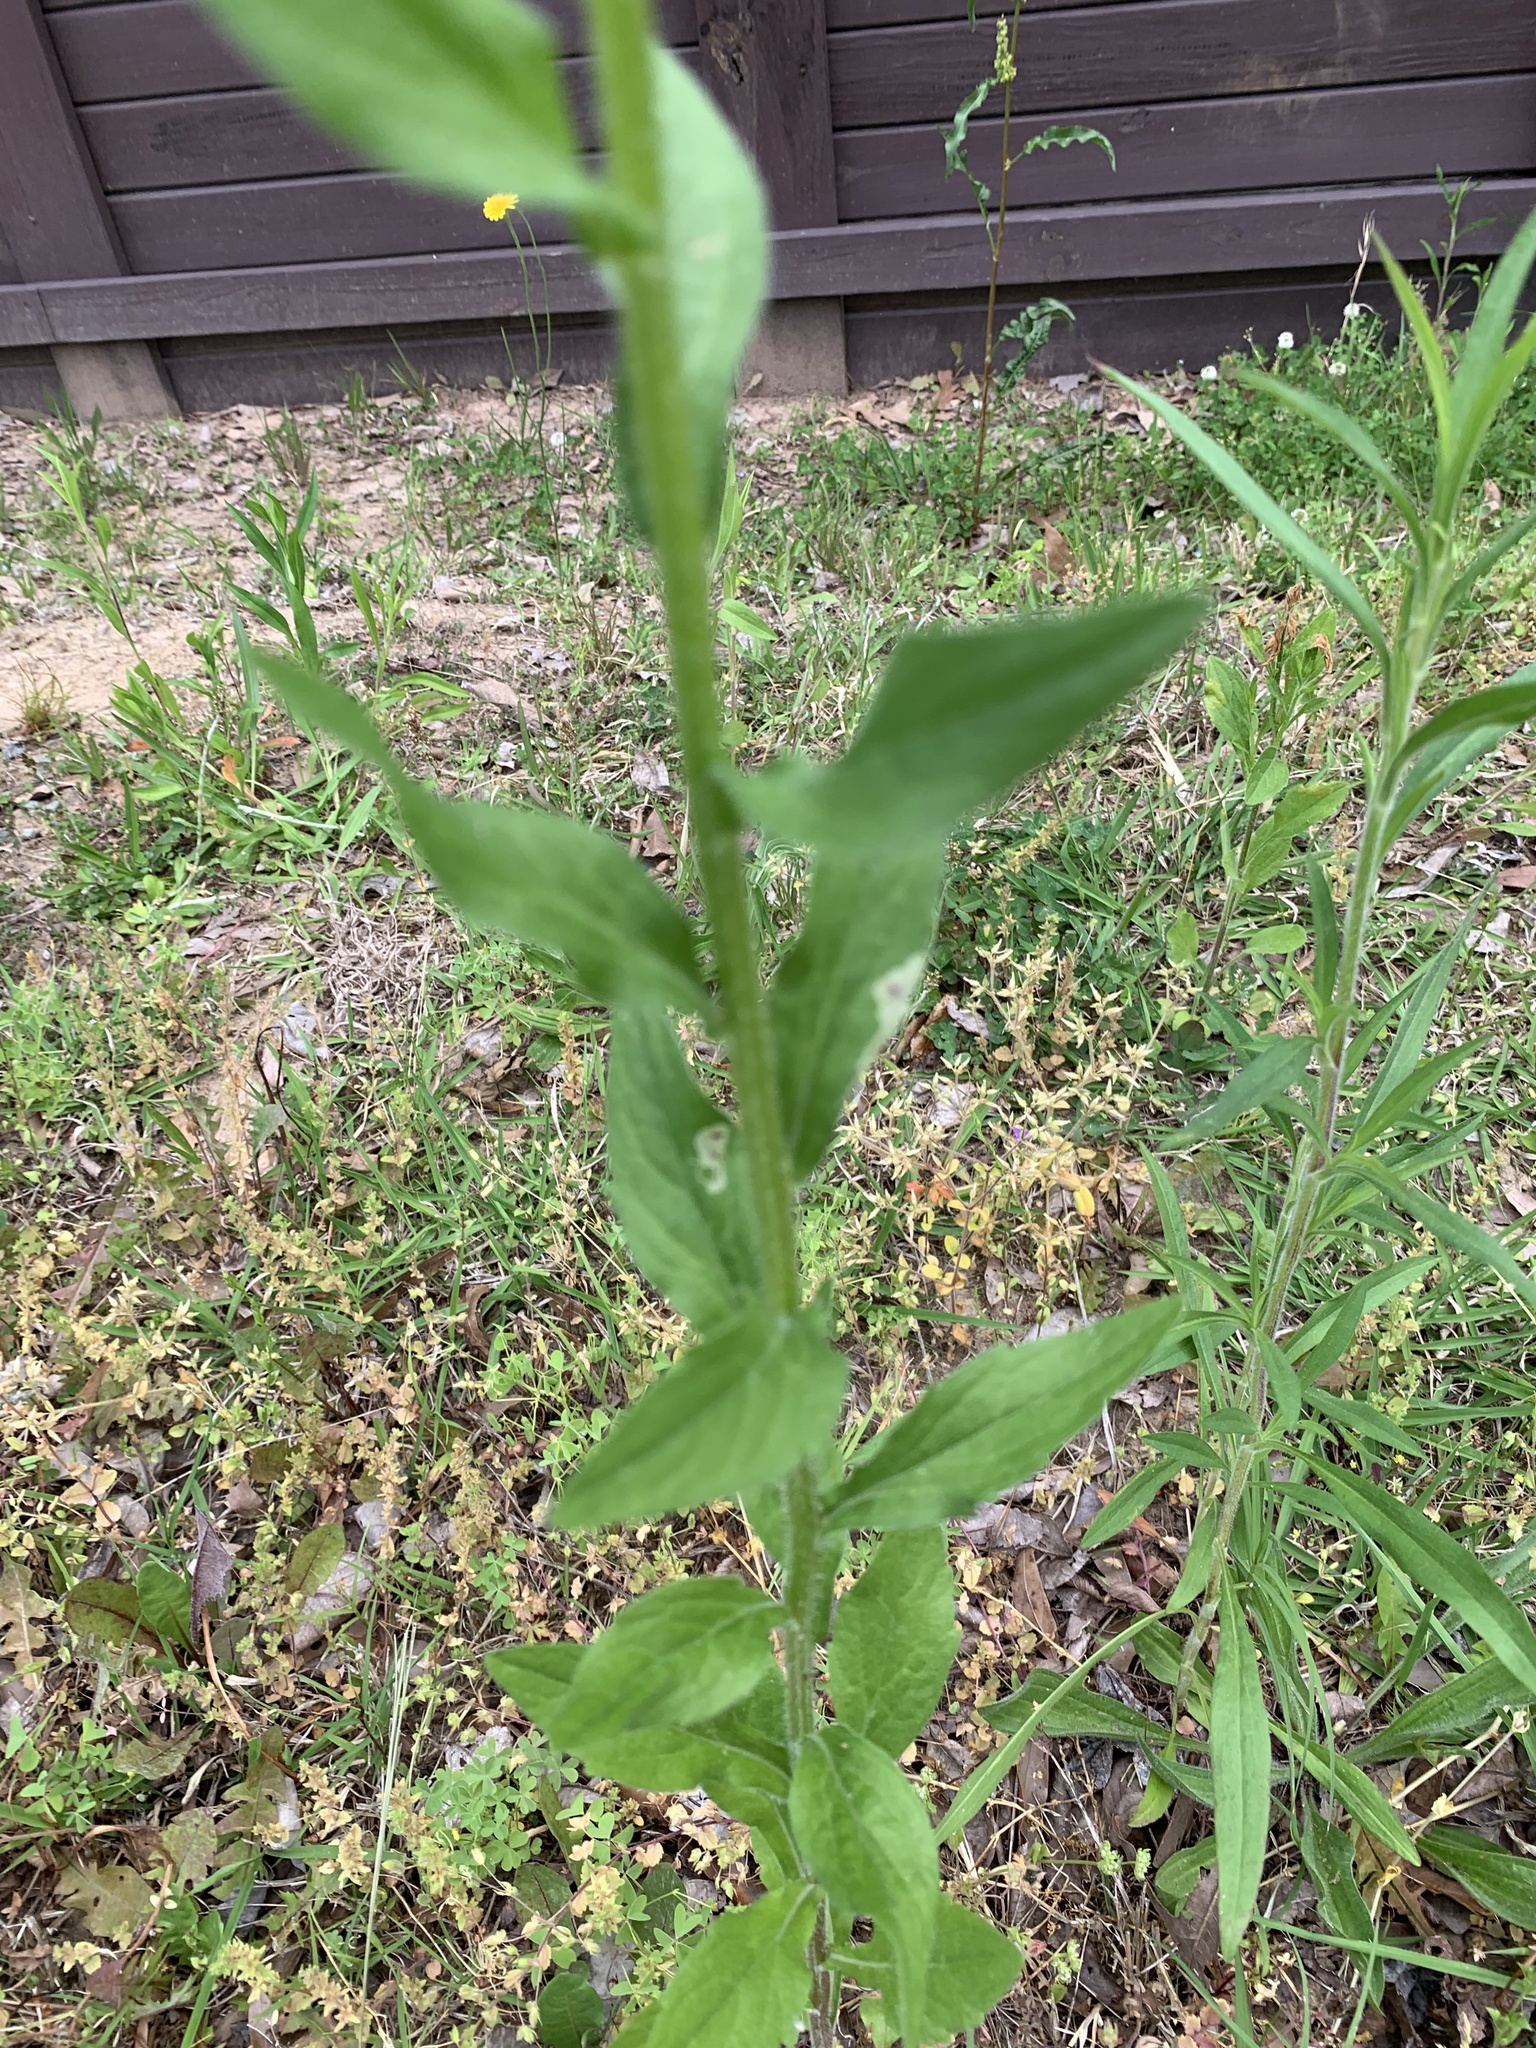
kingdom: Plantae
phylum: Tracheophyta
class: Magnoliopsida
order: Asterales
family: Asteraceae
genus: Erigeron
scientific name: Erigeron annuus
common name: Tall fleabane
